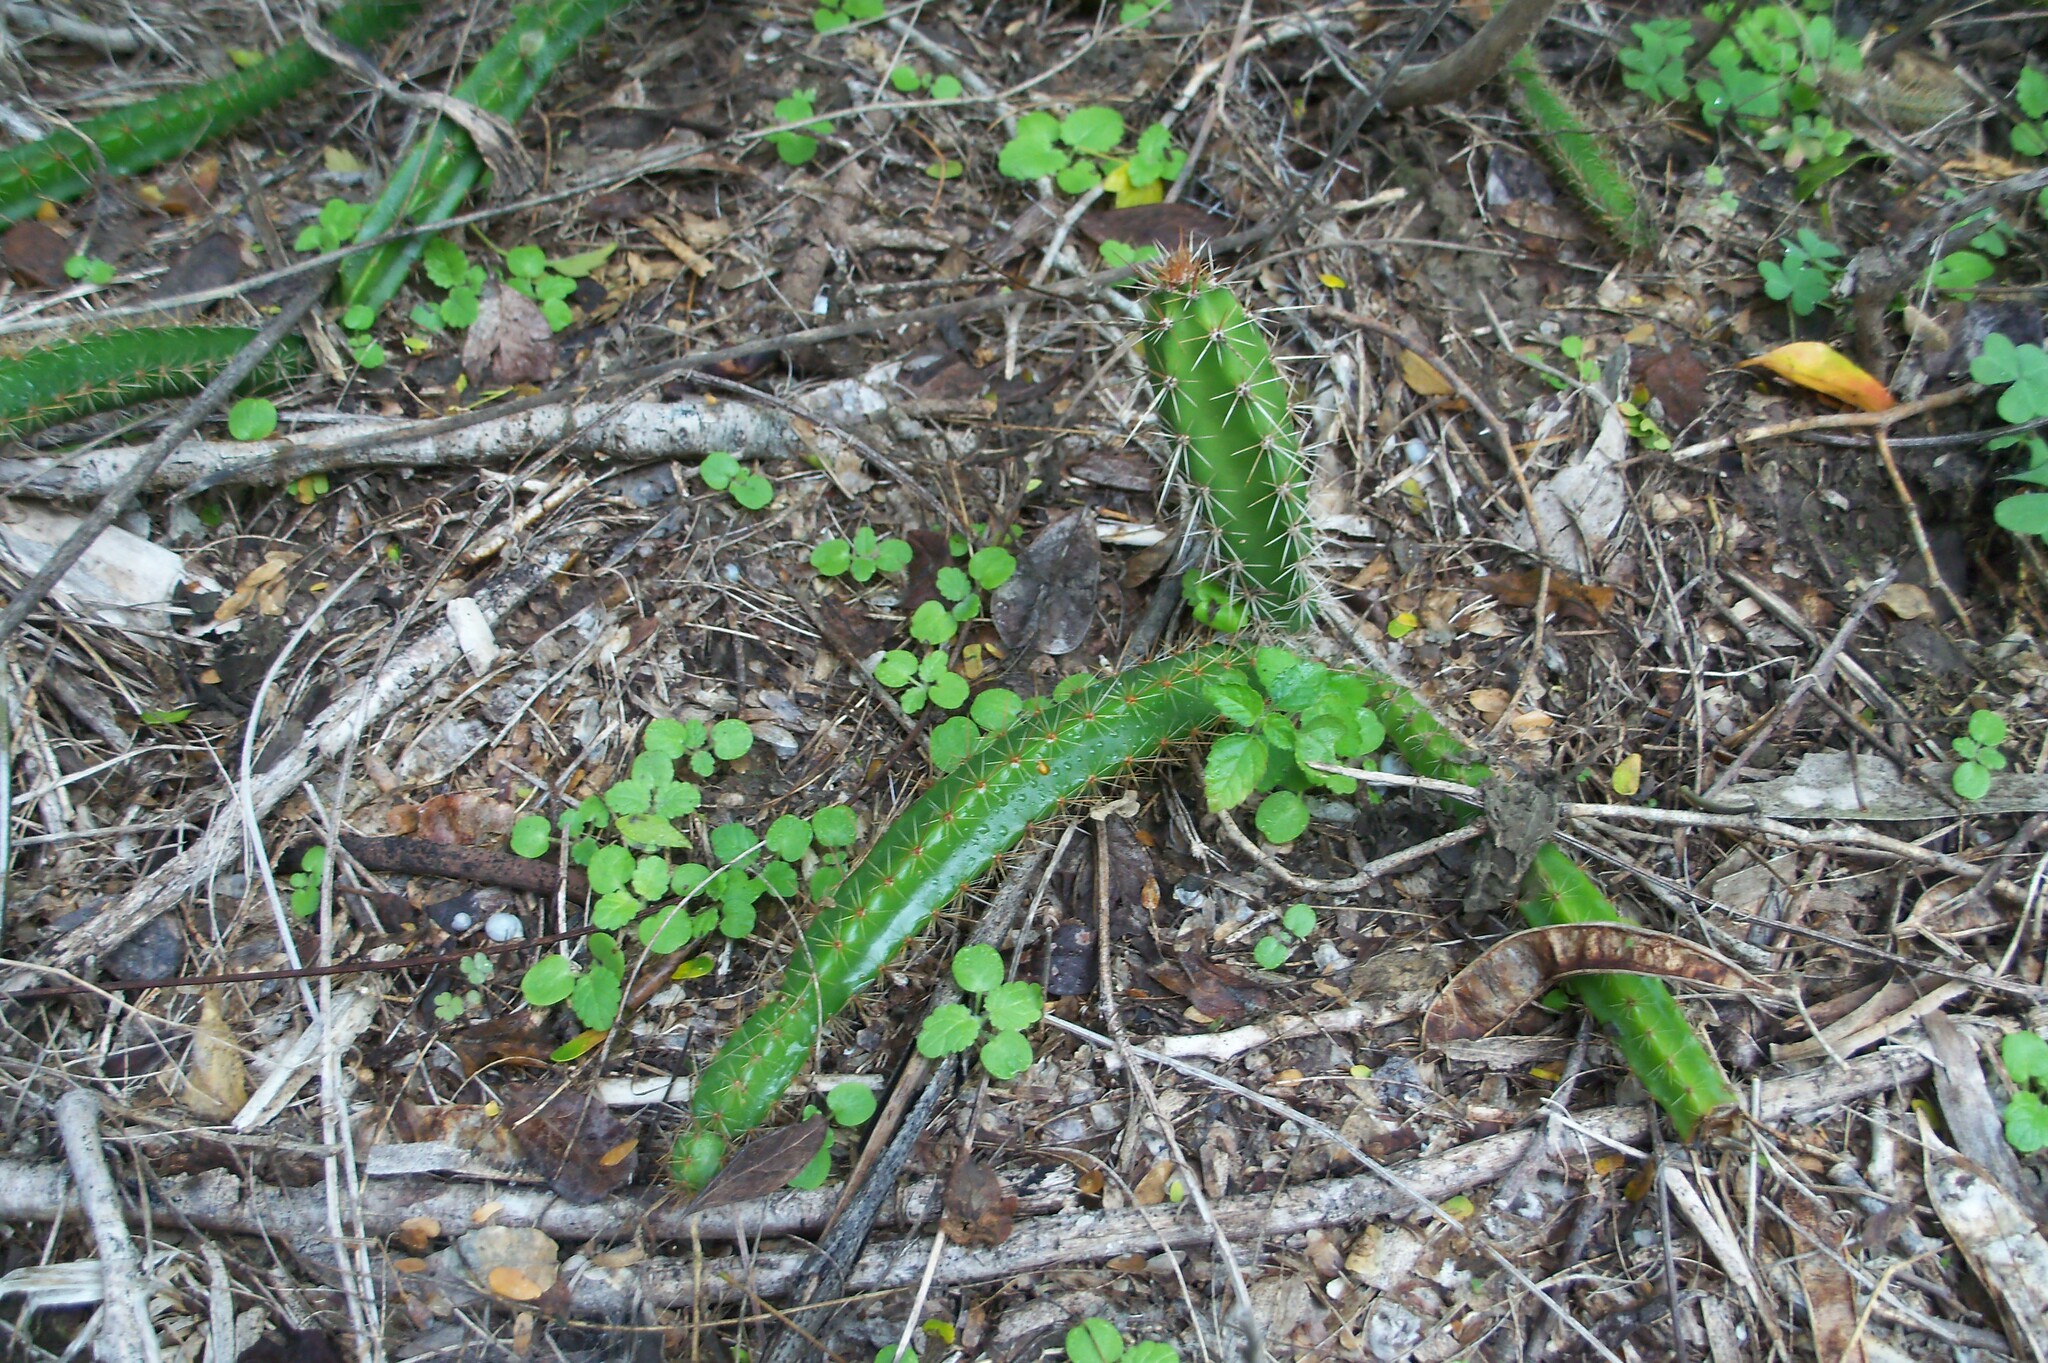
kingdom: Plantae
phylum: Tracheophyta
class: Magnoliopsida
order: Caryophyllales
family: Cactaceae
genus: Acanthocereus
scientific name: Acanthocereus tetragonus
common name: Triangle cactus
